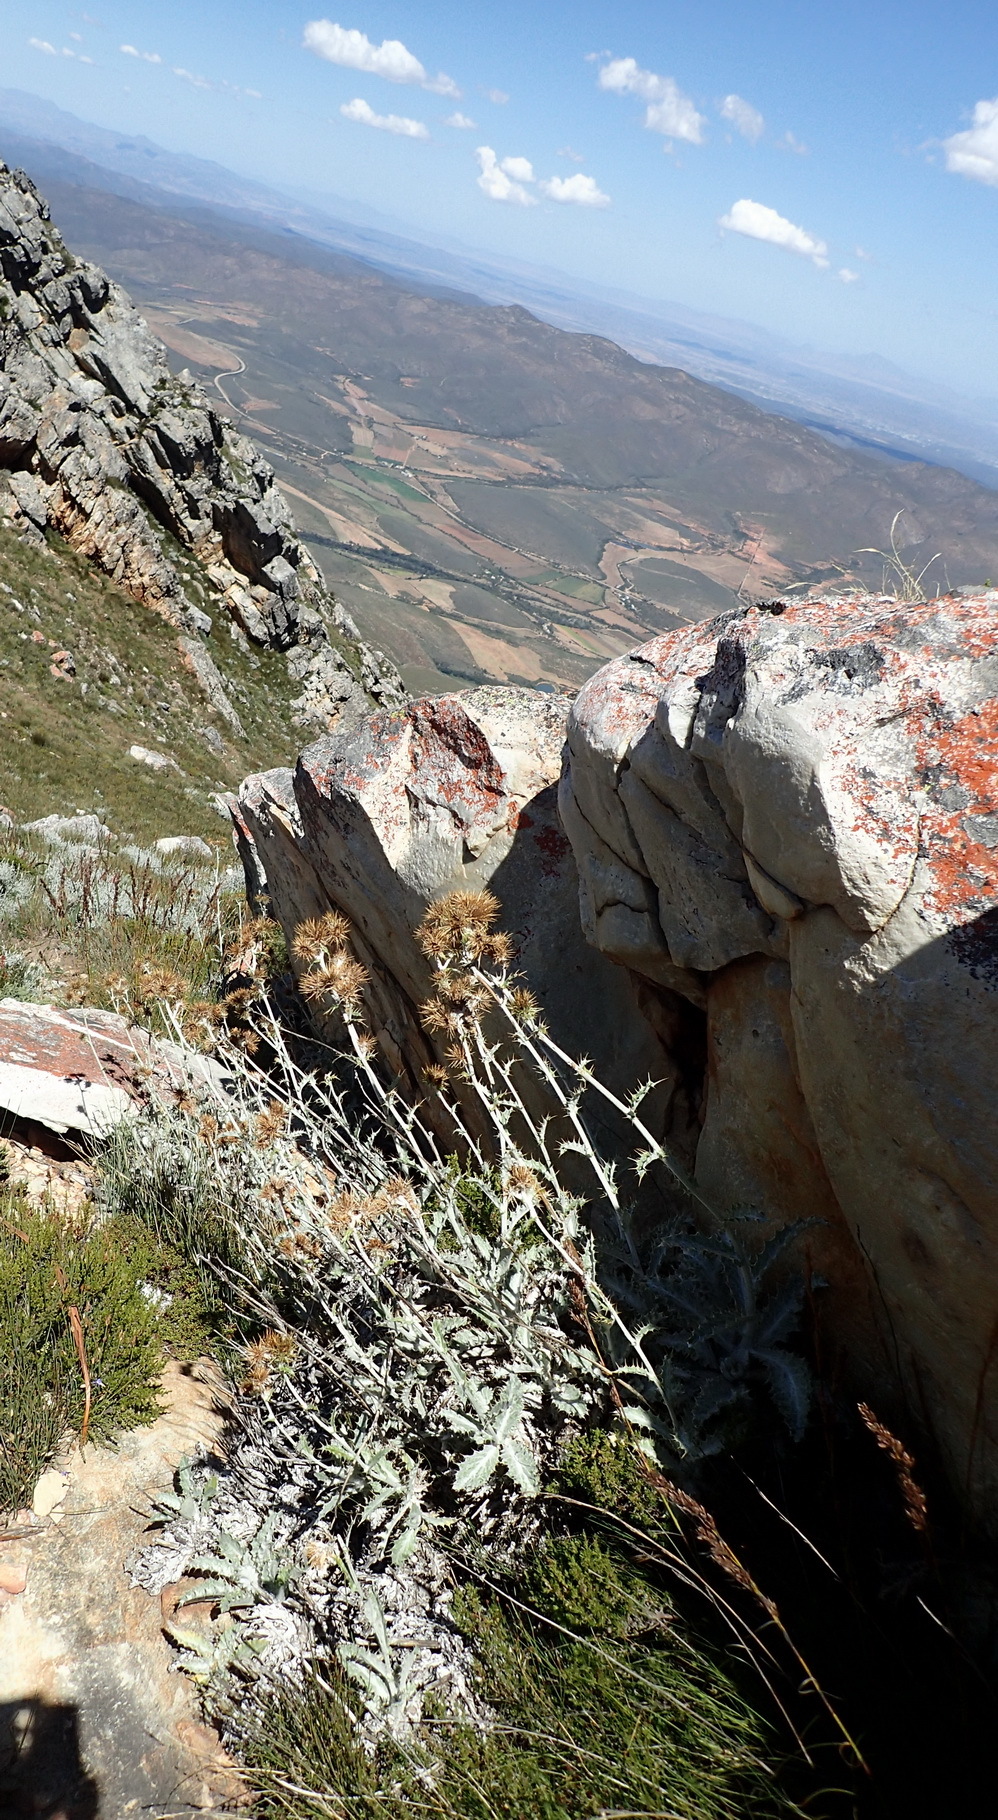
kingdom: Plantae
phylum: Tracheophyta
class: Magnoliopsida
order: Asterales
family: Asteraceae
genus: Berkheya
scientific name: Berkheya francisci
